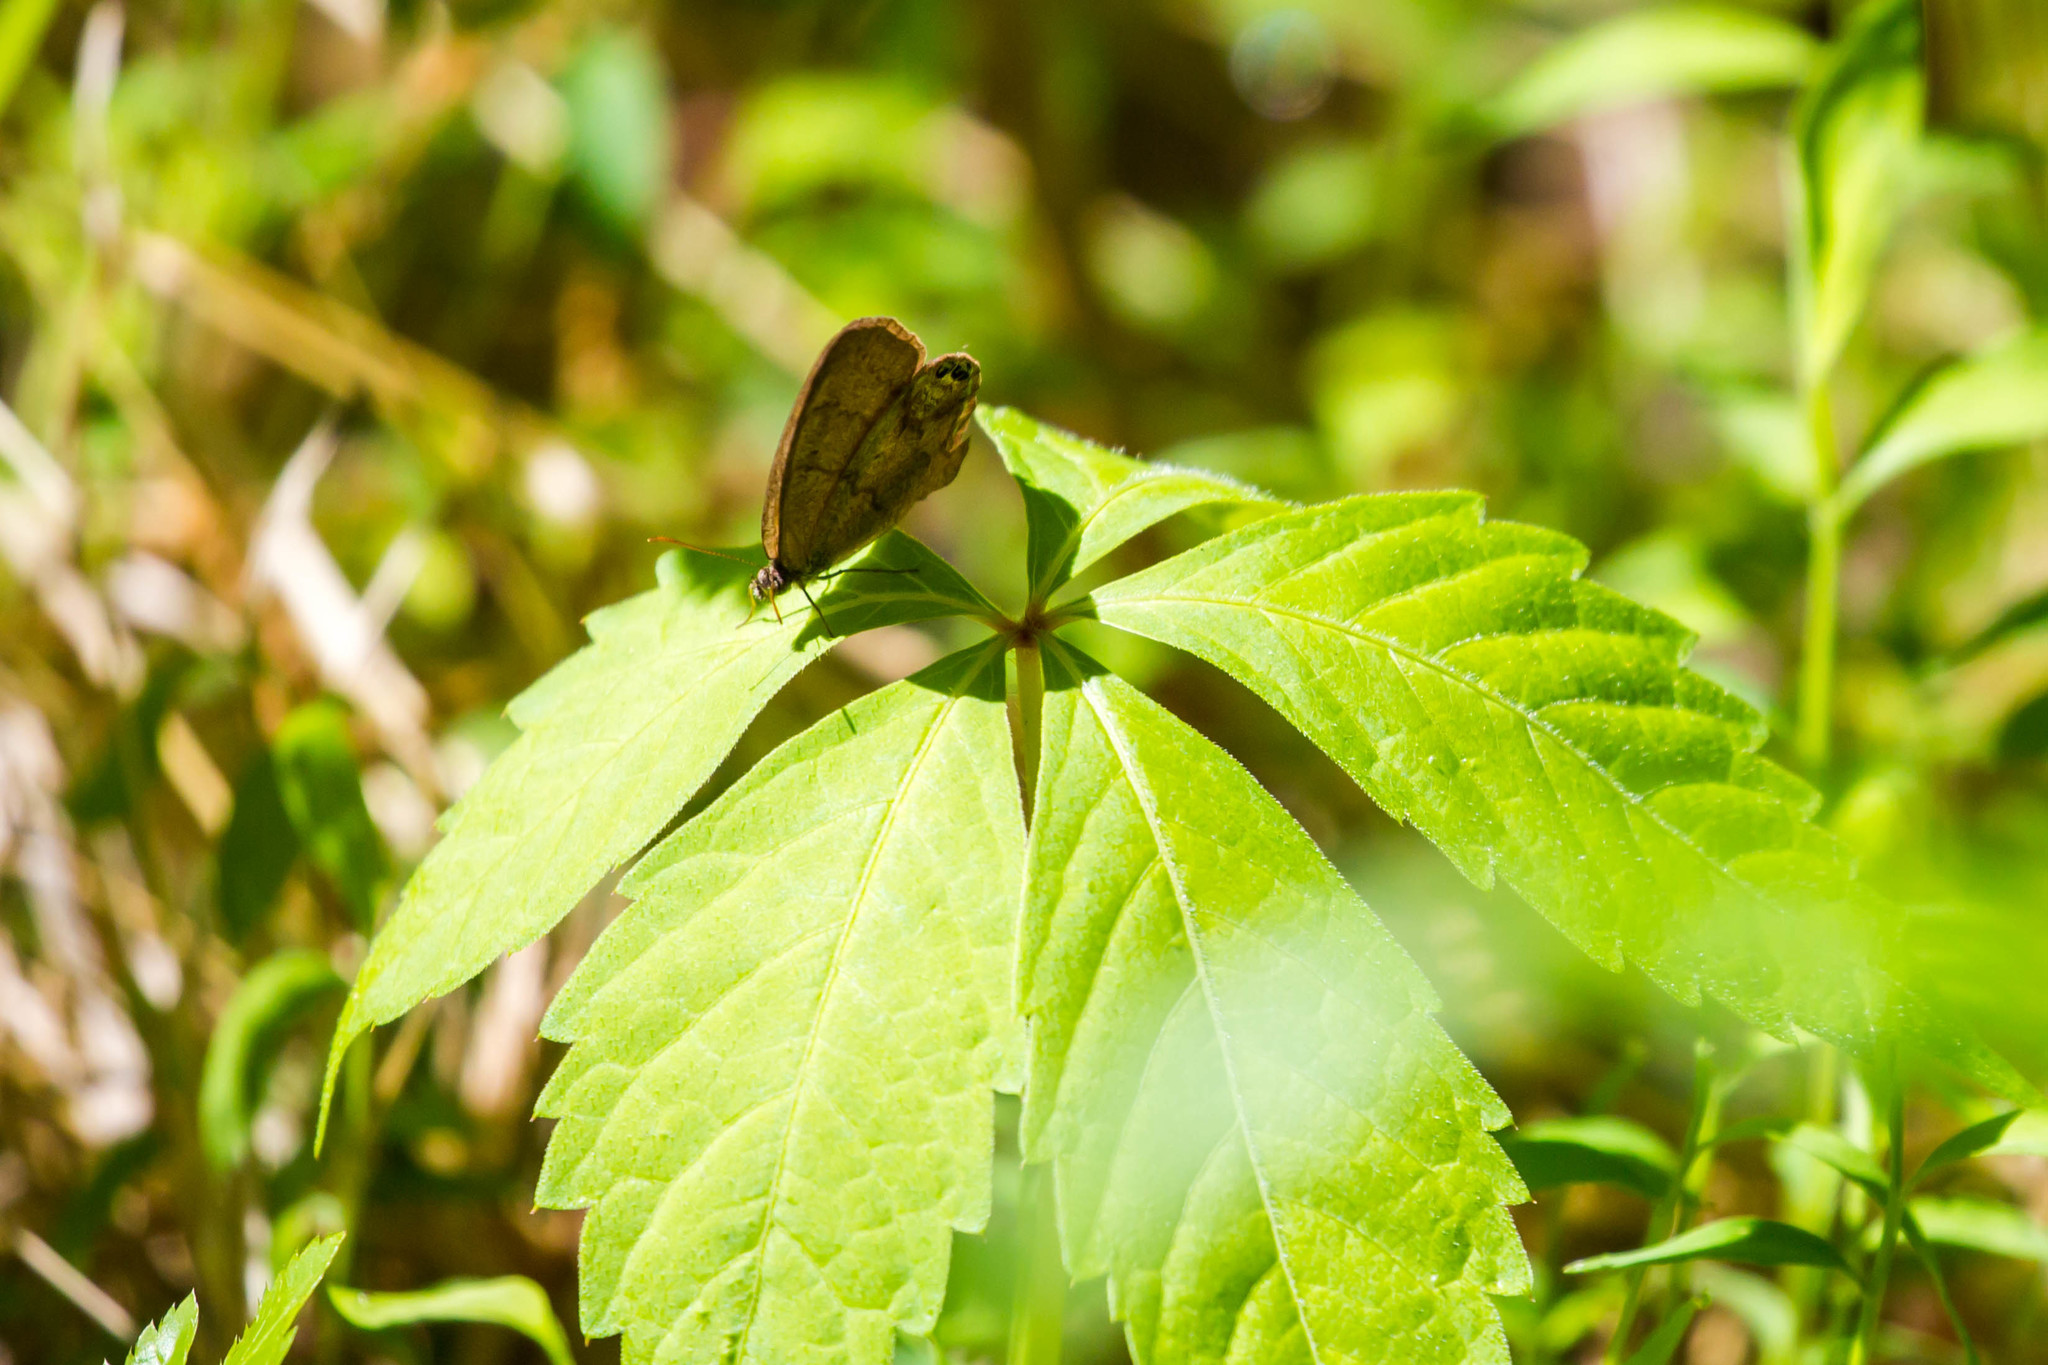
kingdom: Animalia
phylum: Arthropoda
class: Insecta
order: Lepidoptera
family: Nymphalidae
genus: Euptychia
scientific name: Euptychia cornelius
